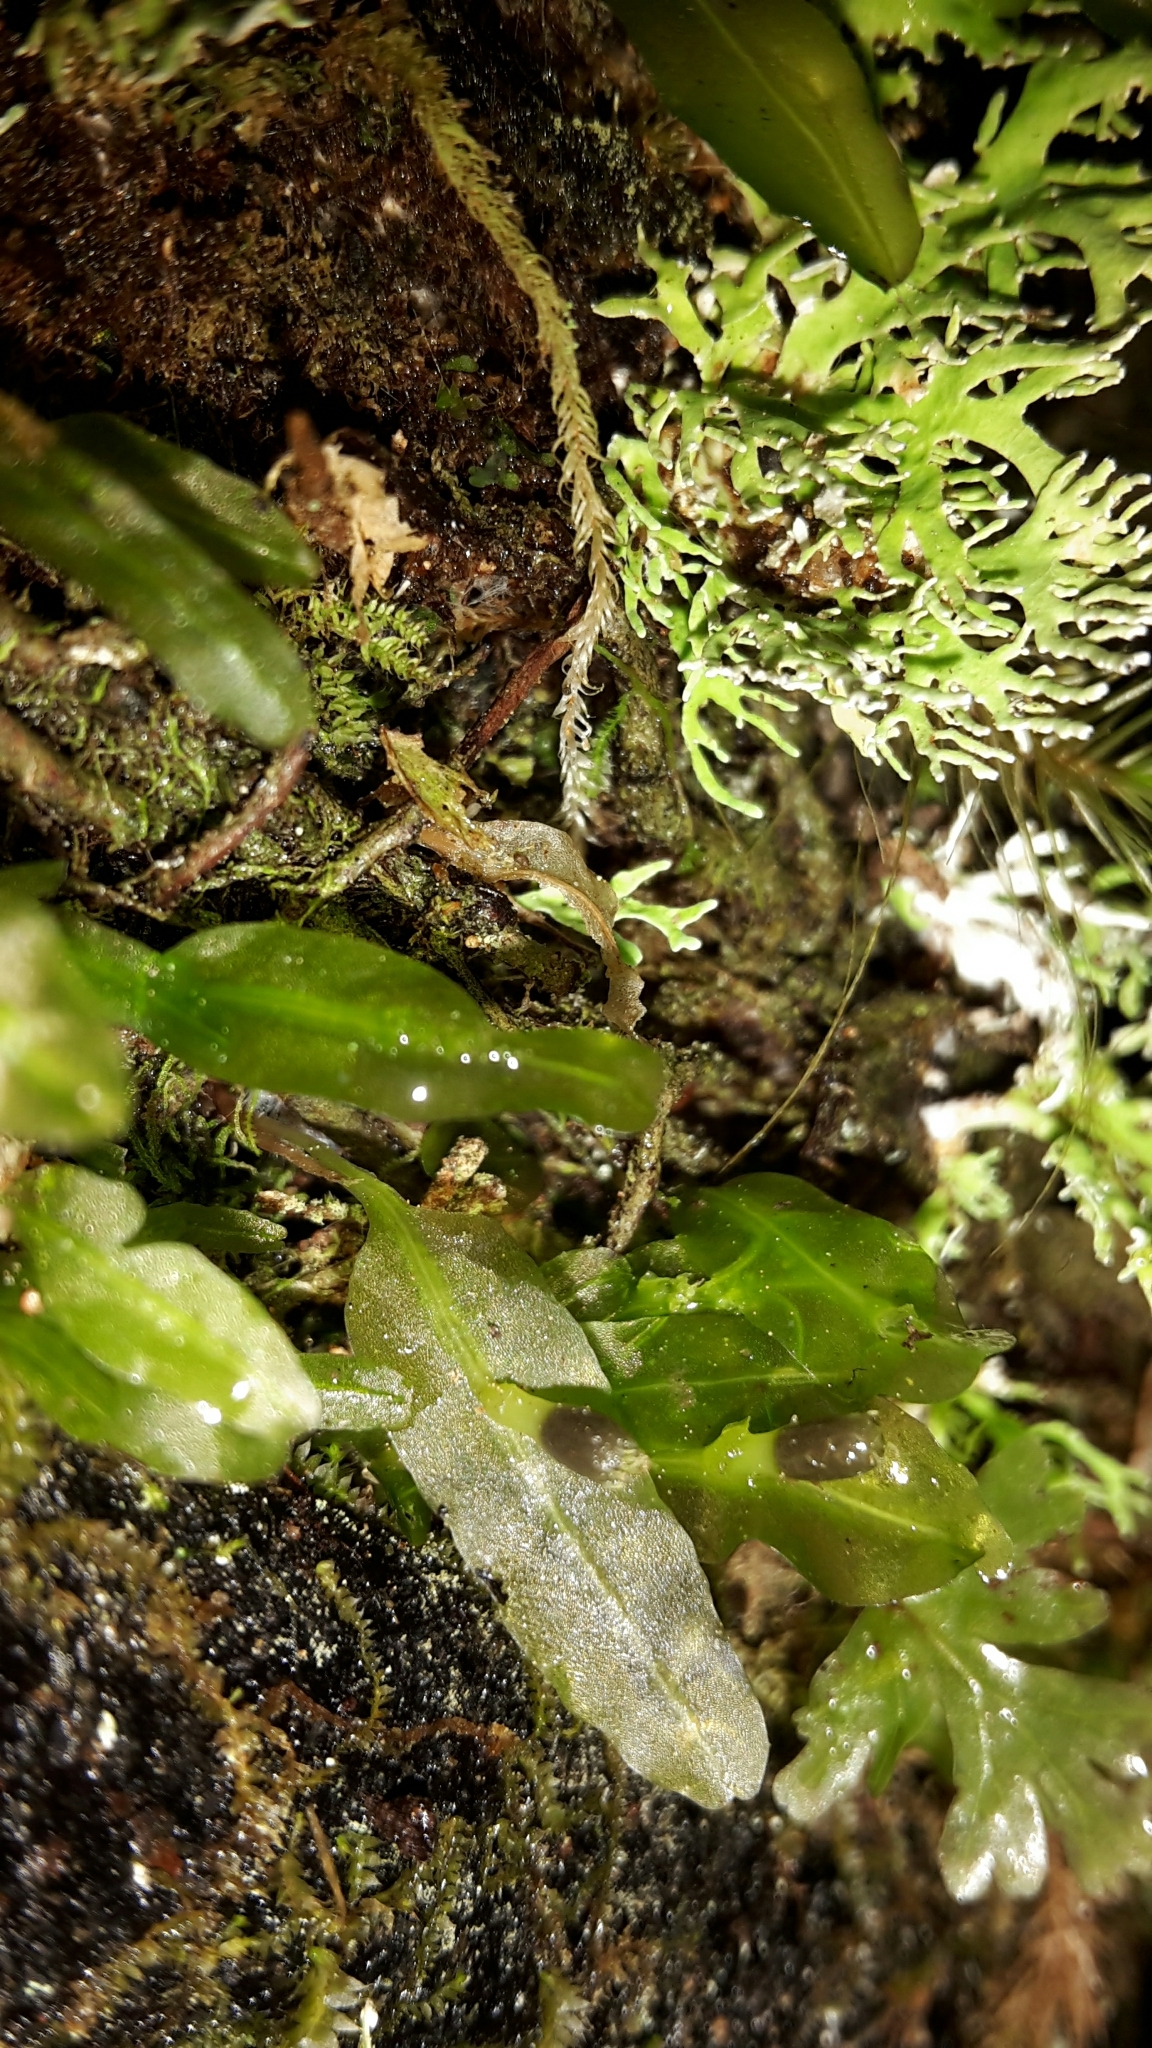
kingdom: Plantae
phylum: Marchantiophyta
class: Jungermanniopsida
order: Pallaviciniales
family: Pallaviciniaceae
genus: Symphyogyna
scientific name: Symphyogyna subsimplex
